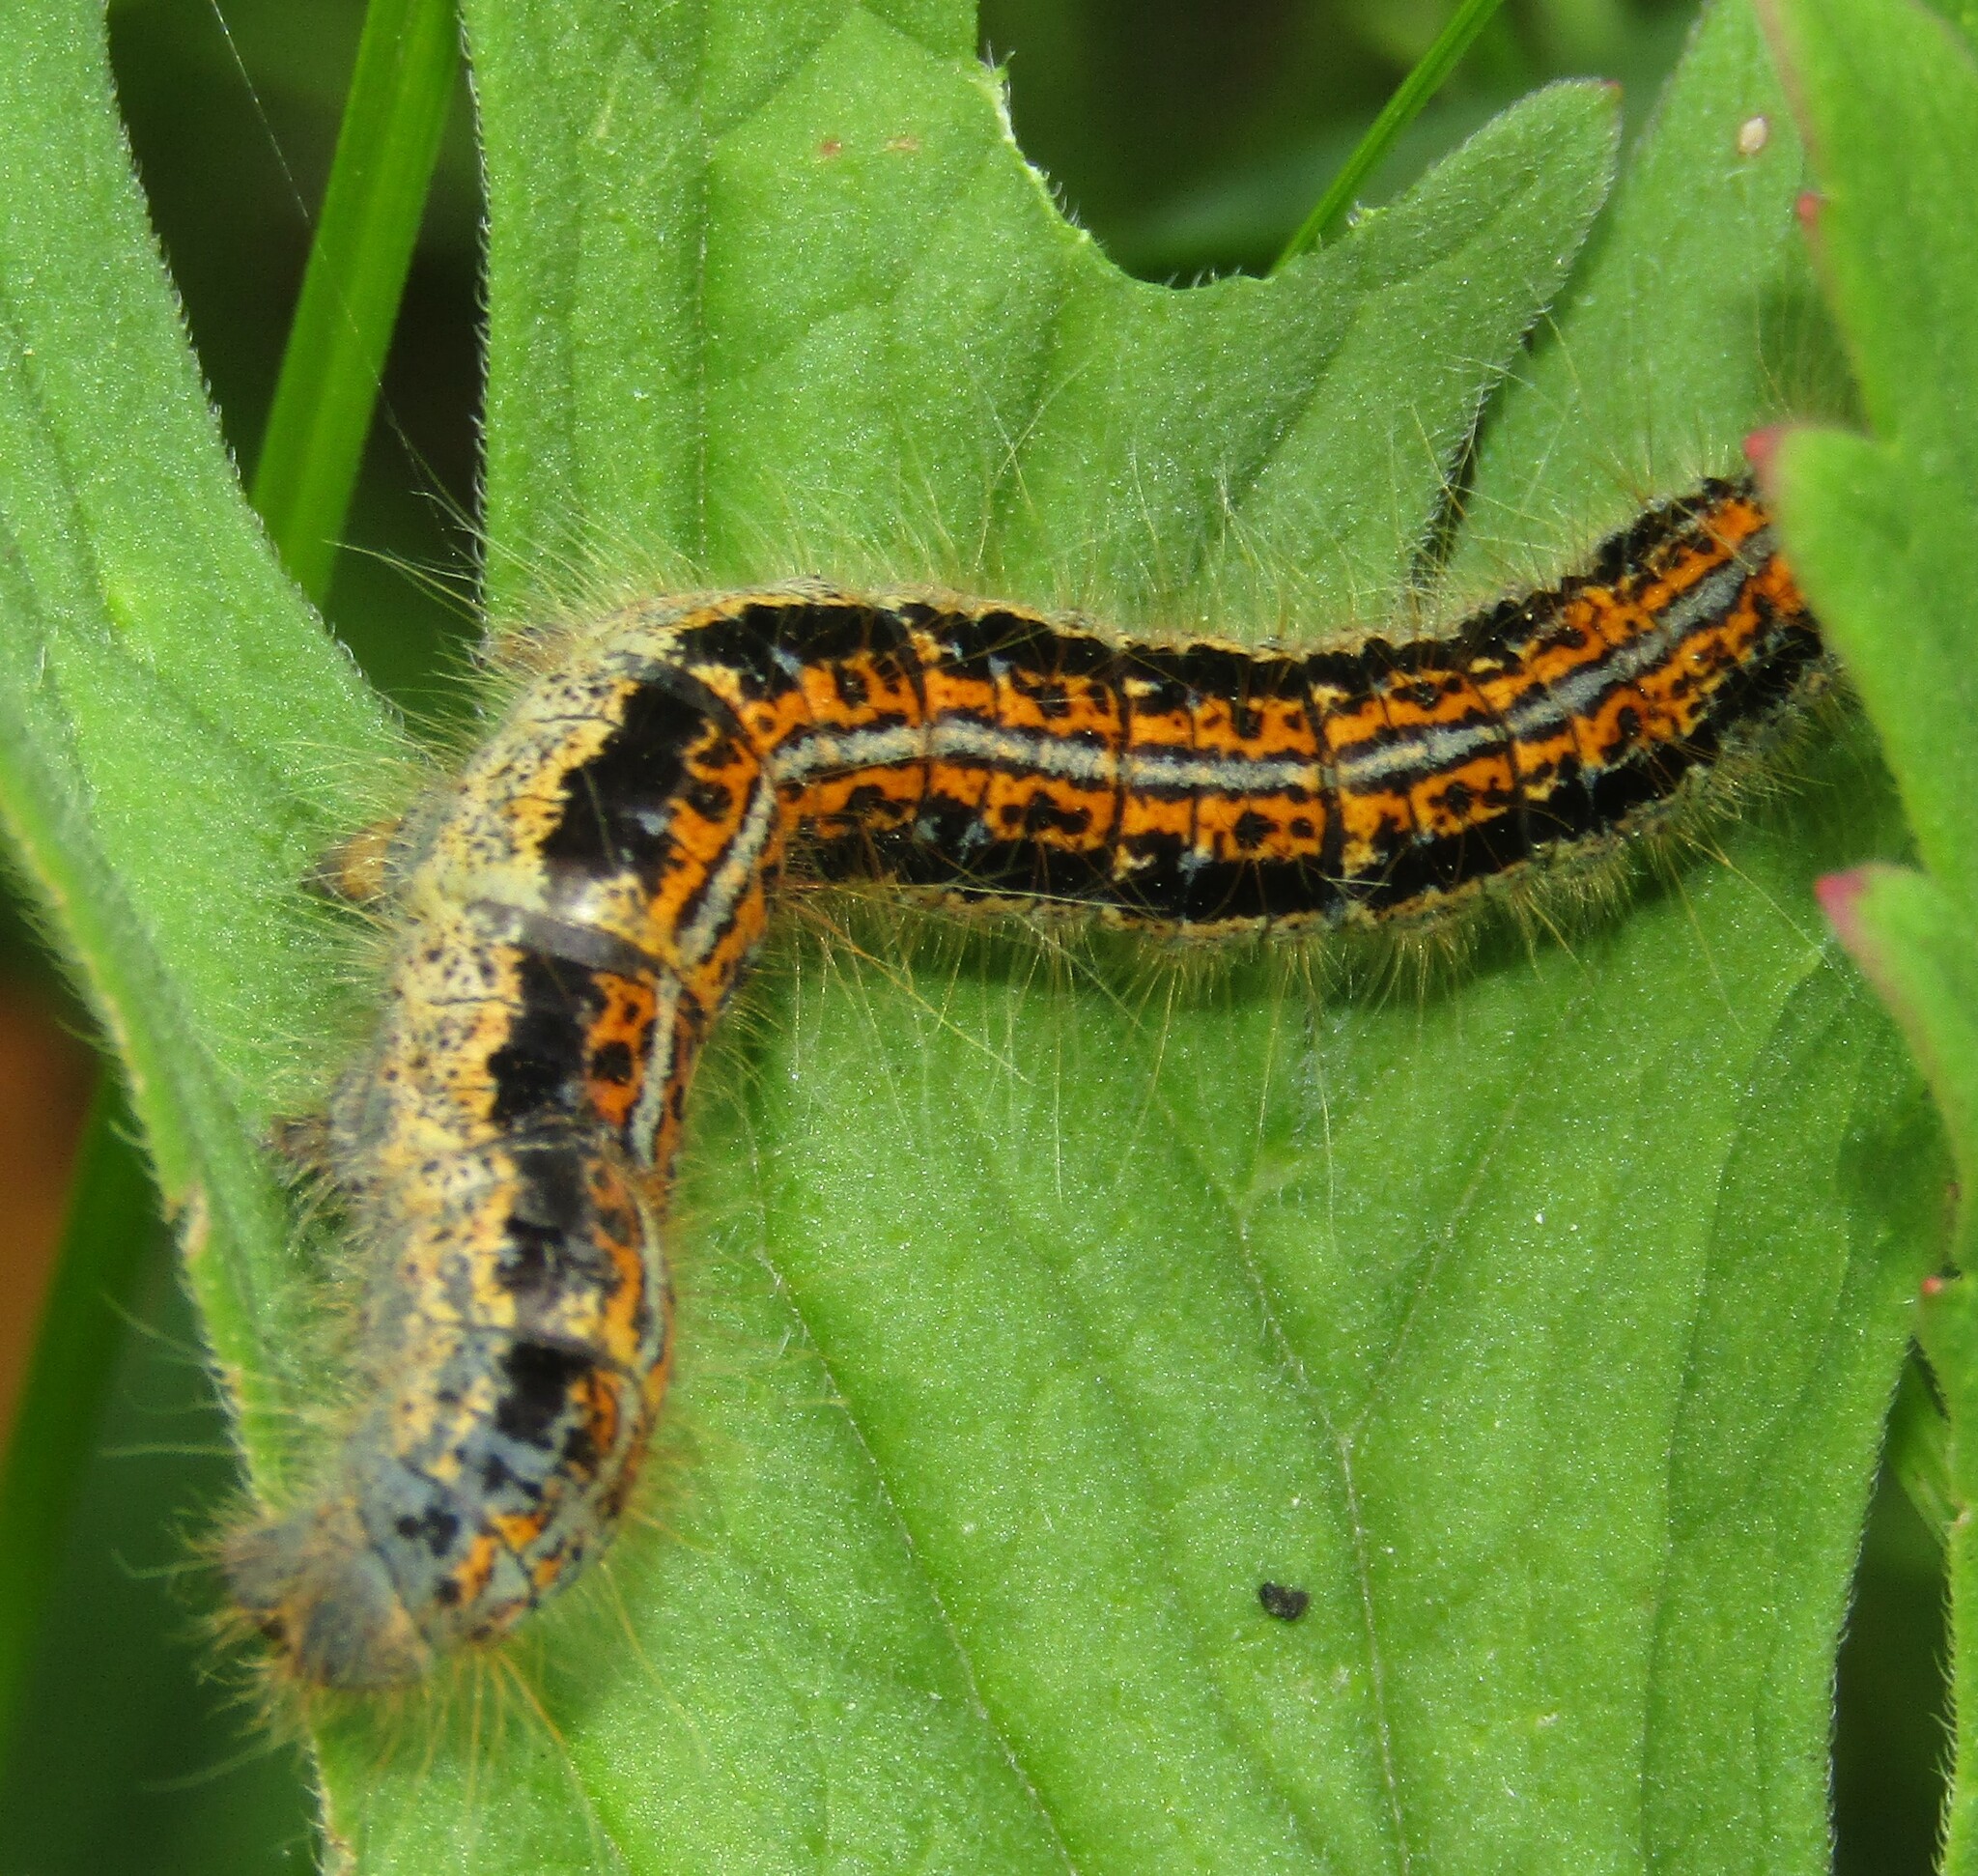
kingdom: Animalia
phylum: Arthropoda
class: Insecta
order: Lepidoptera
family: Lasiocampidae
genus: Malacosoma
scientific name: Malacosoma castrense
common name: Ground lackey
